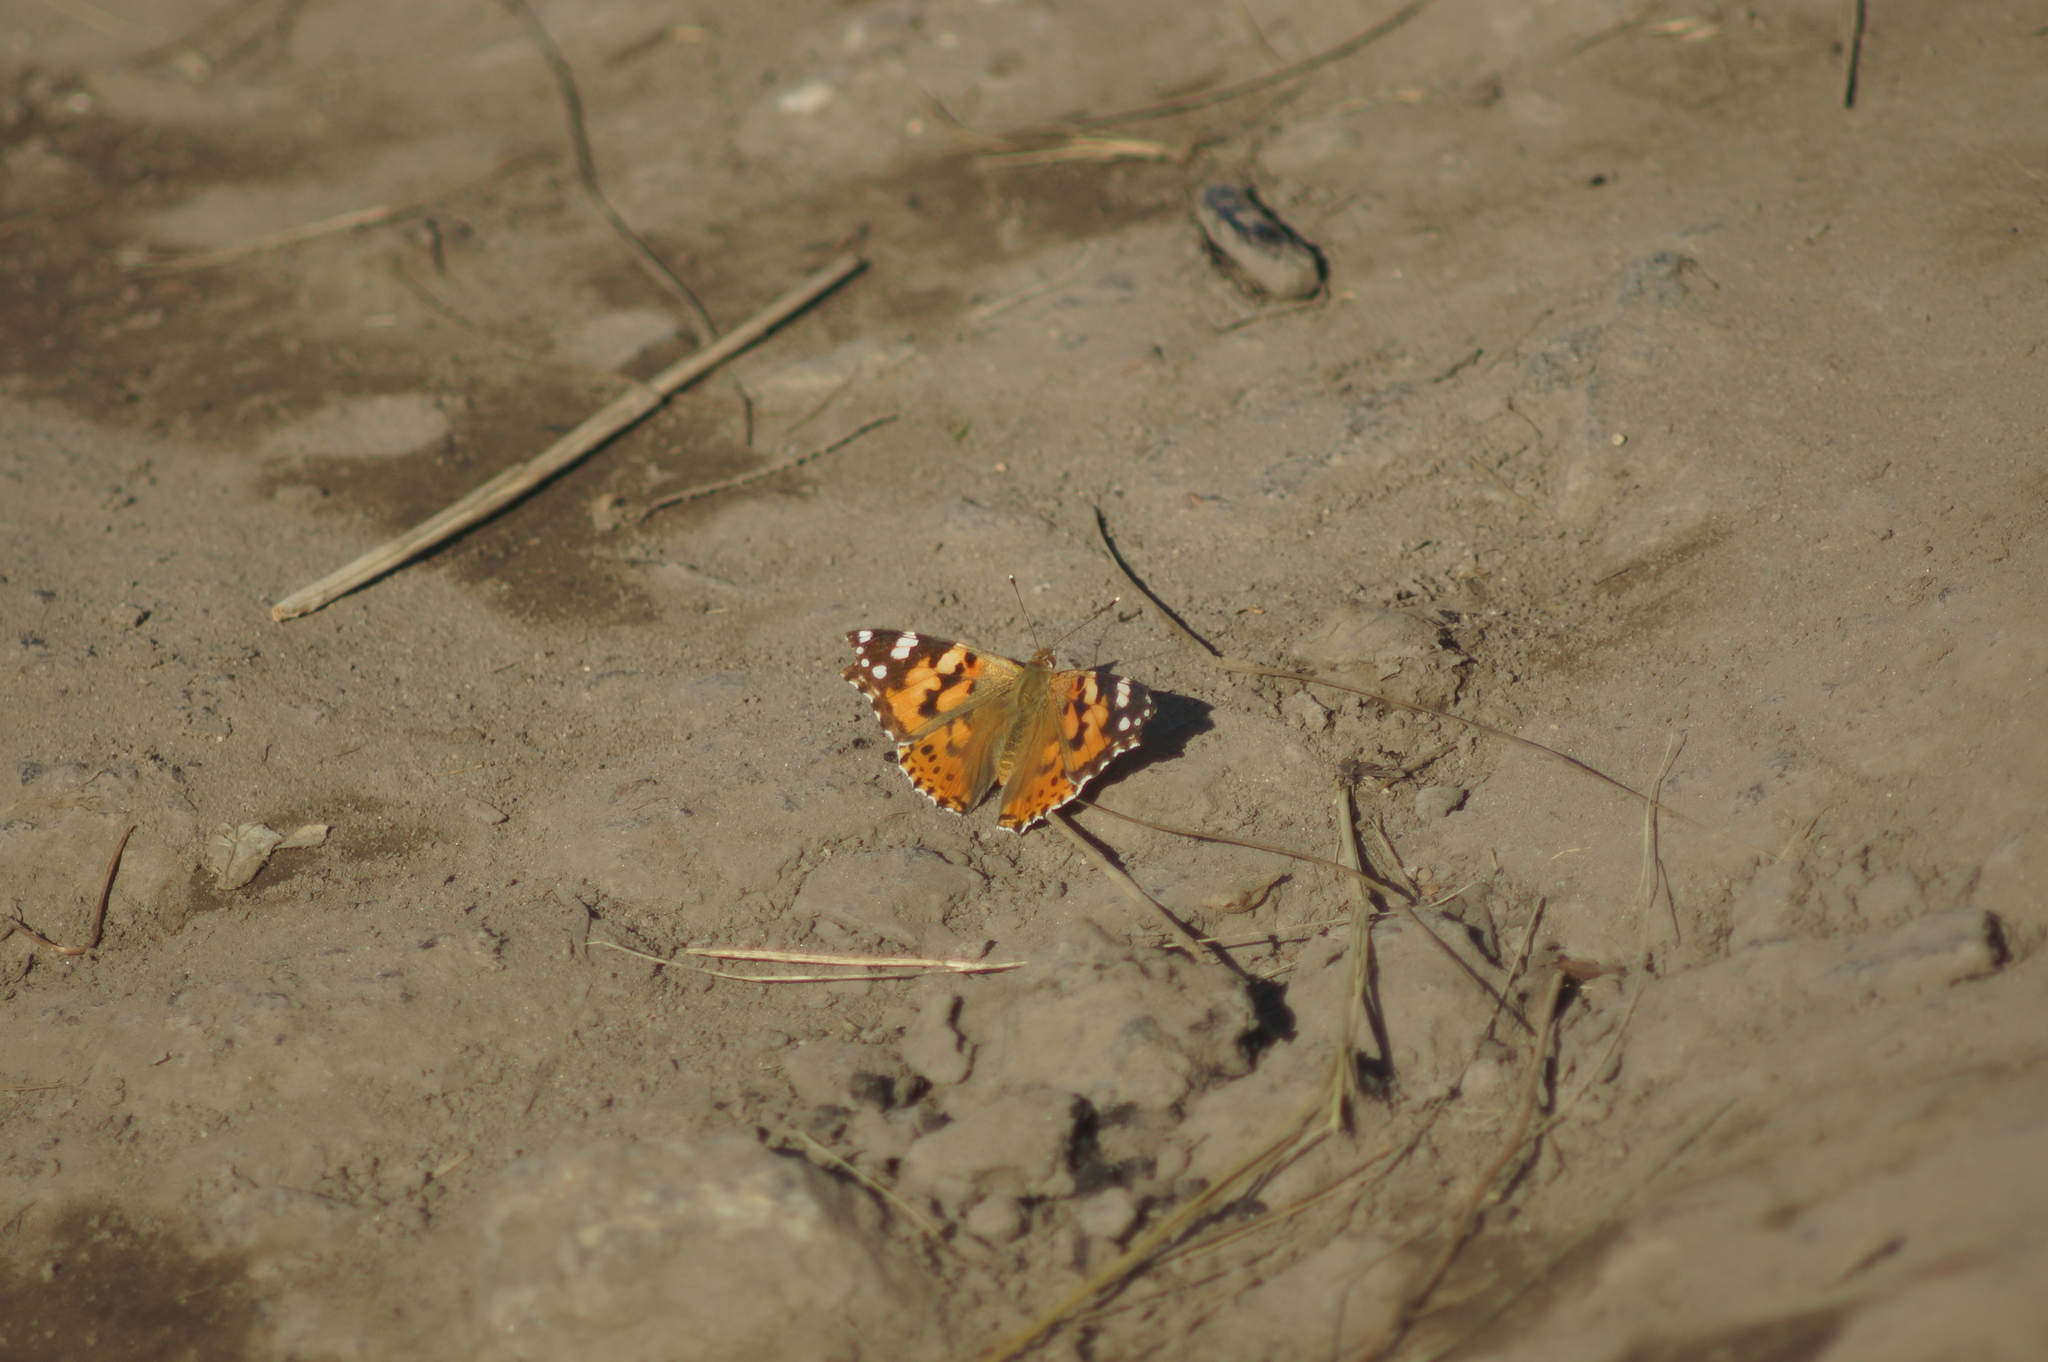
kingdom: Animalia
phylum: Arthropoda
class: Insecta
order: Lepidoptera
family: Nymphalidae
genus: Vanessa
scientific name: Vanessa cardui
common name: Painted lady
